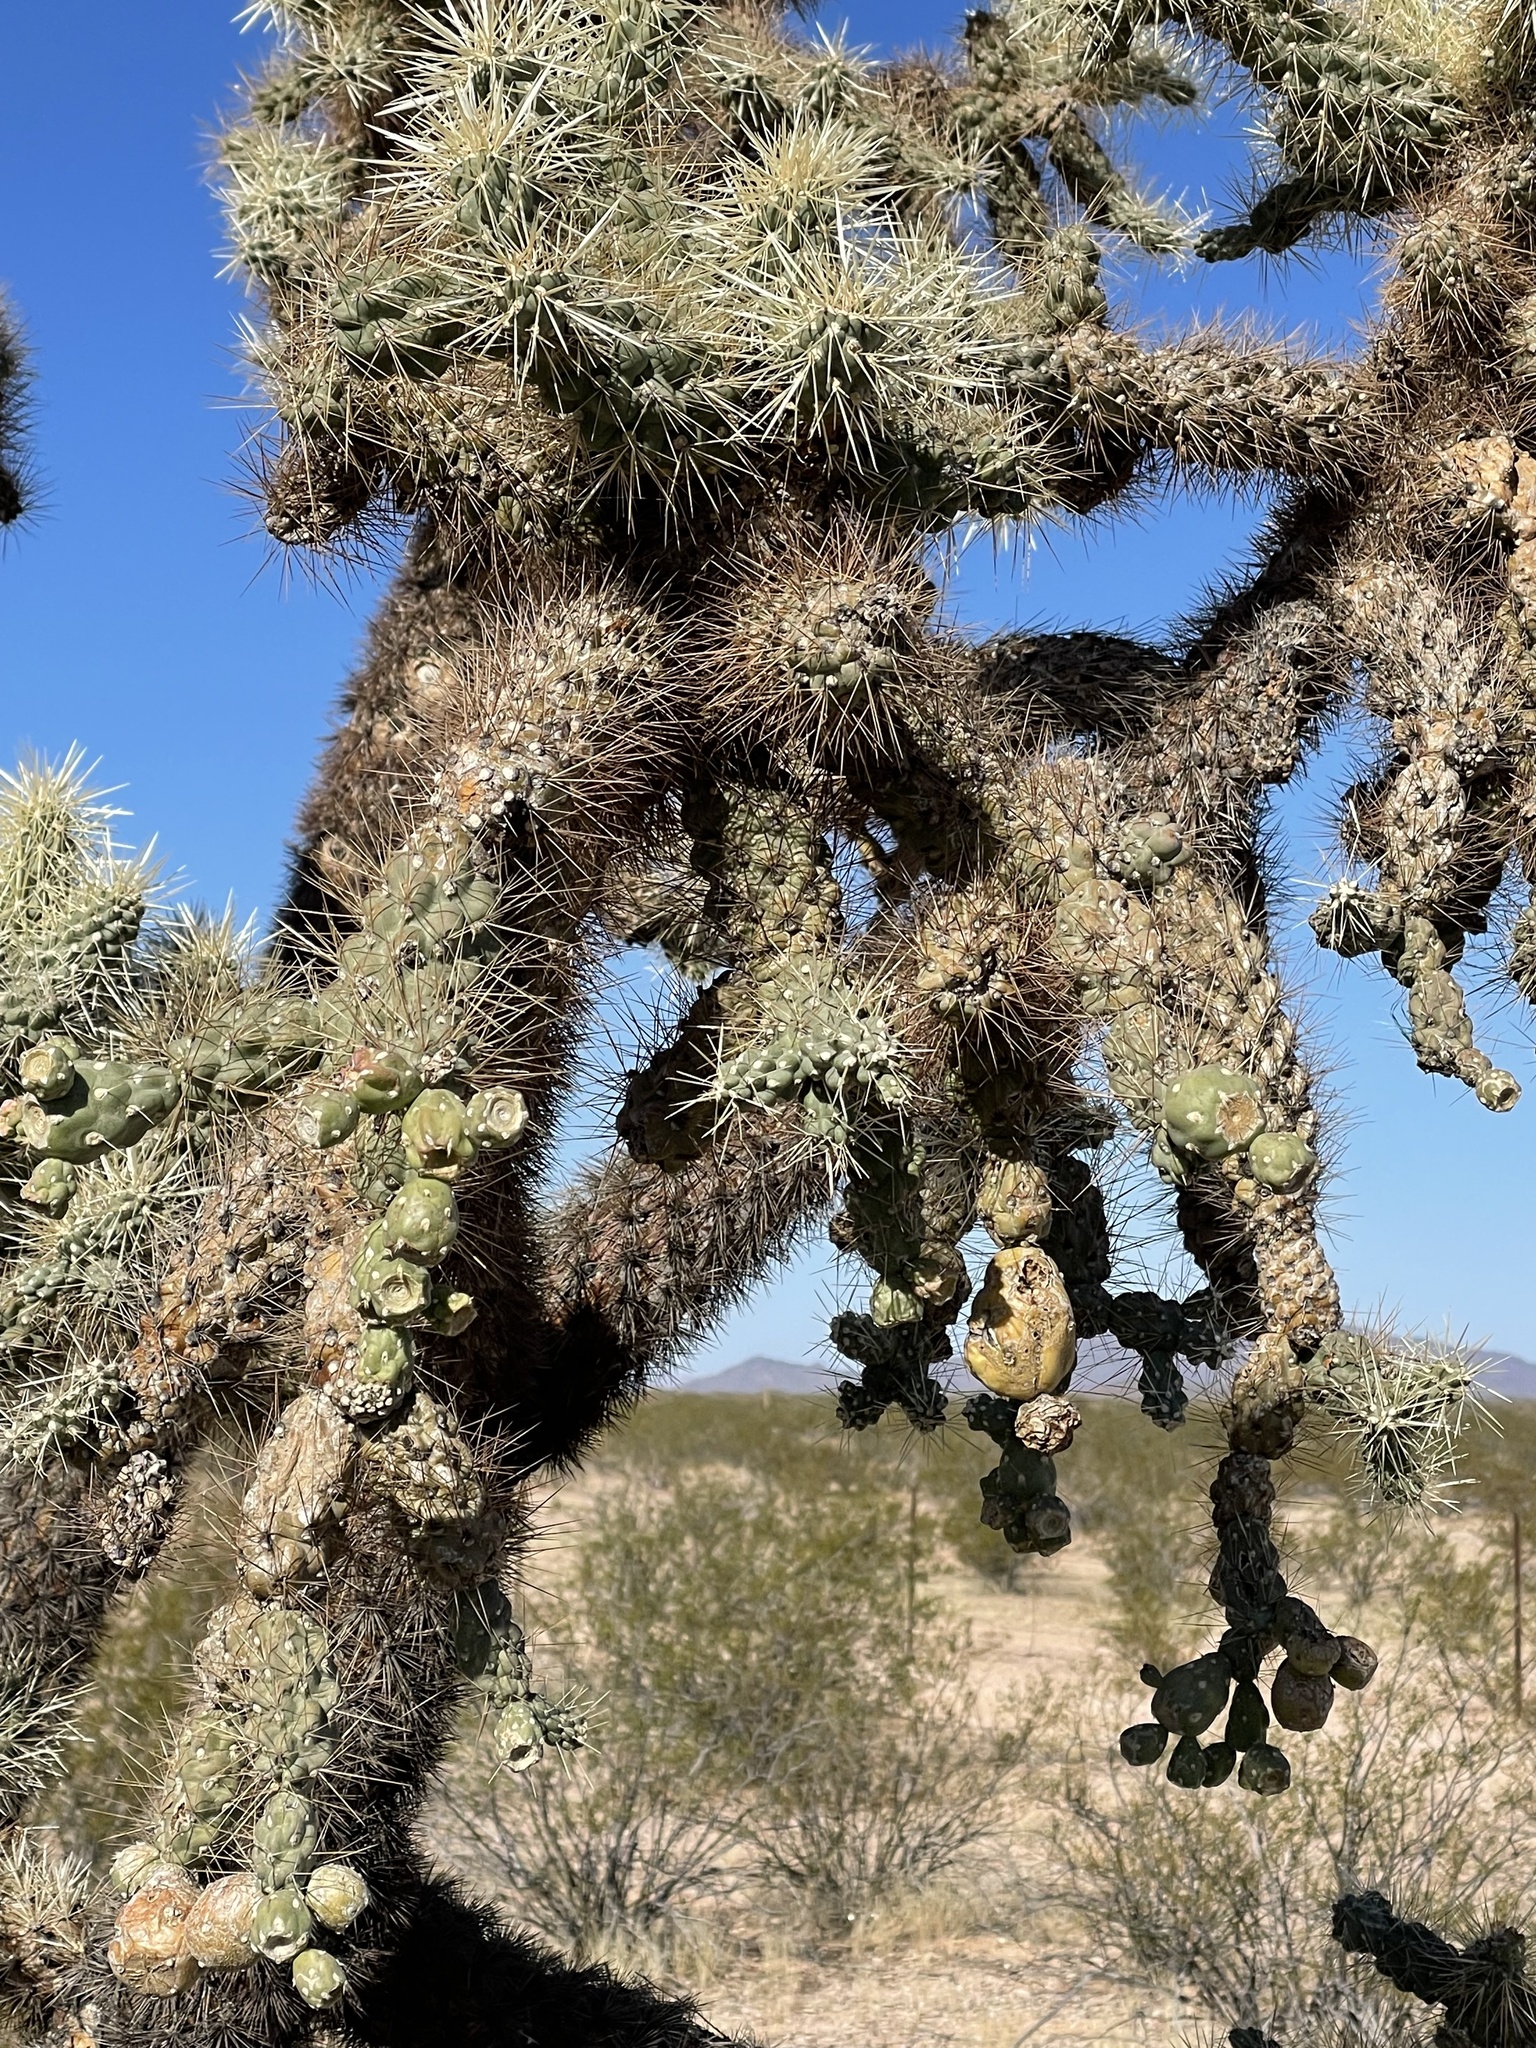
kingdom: Plantae
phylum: Tracheophyta
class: Magnoliopsida
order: Caryophyllales
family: Cactaceae
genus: Cylindropuntia
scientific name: Cylindropuntia fulgida
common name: Jumping cholla
